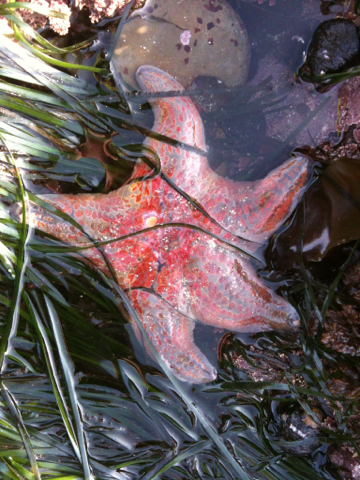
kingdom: Animalia
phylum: Echinodermata
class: Asteroidea
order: Valvatida
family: Asteropseidae
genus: Dermasterias
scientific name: Dermasterias imbricata
